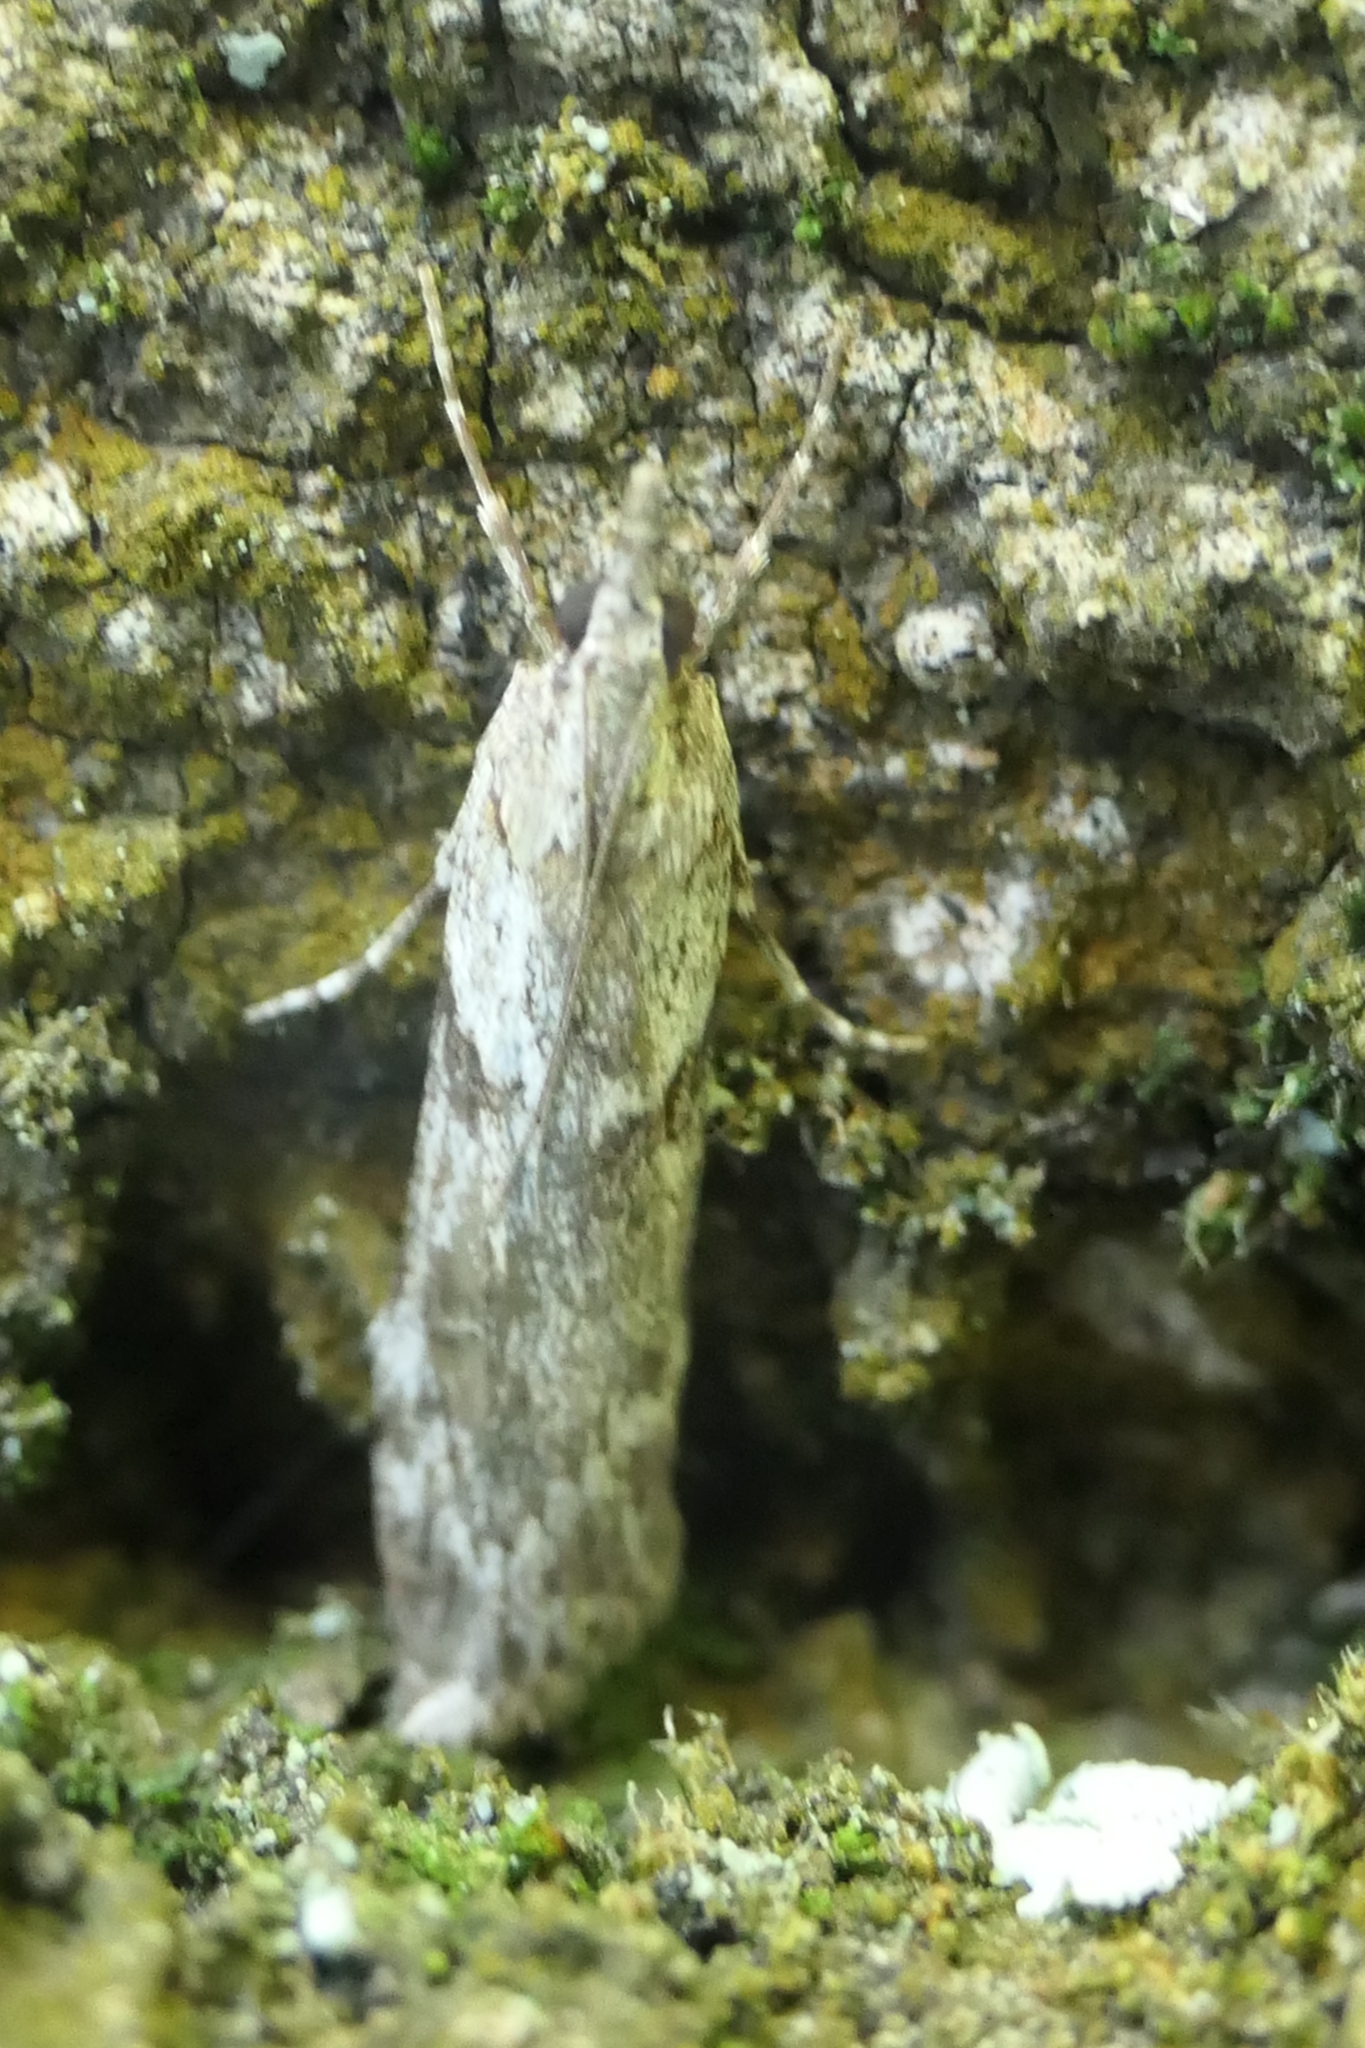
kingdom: Animalia
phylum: Arthropoda
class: Insecta
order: Lepidoptera
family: Crambidae
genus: Scoparia
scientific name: Scoparia halopis
